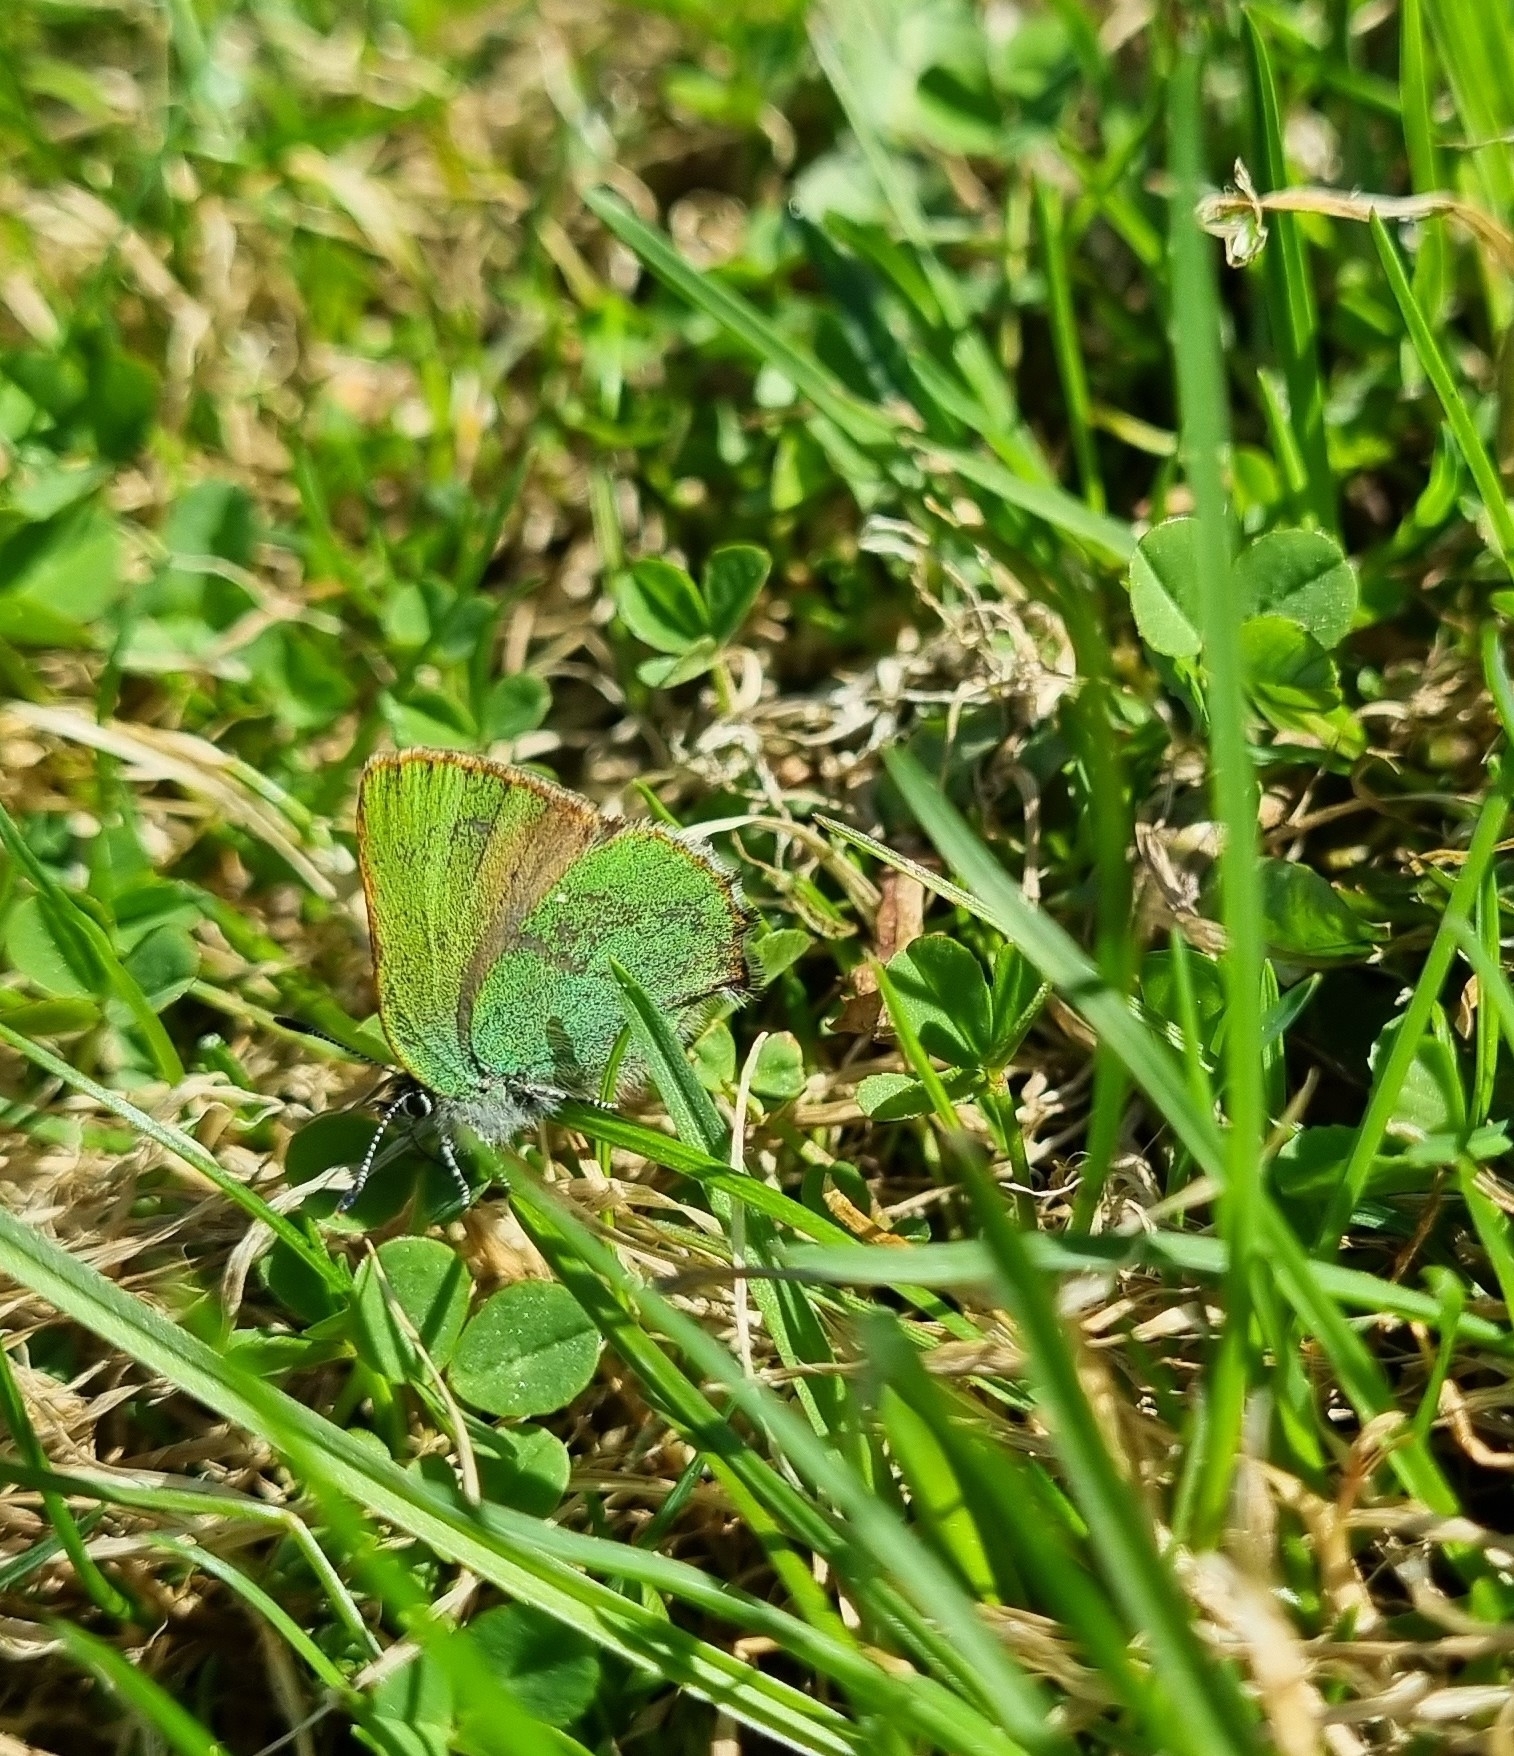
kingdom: Animalia
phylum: Arthropoda
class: Insecta
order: Lepidoptera
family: Lycaenidae
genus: Callophrys
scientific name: Callophrys rubi
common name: Green hairstreak
